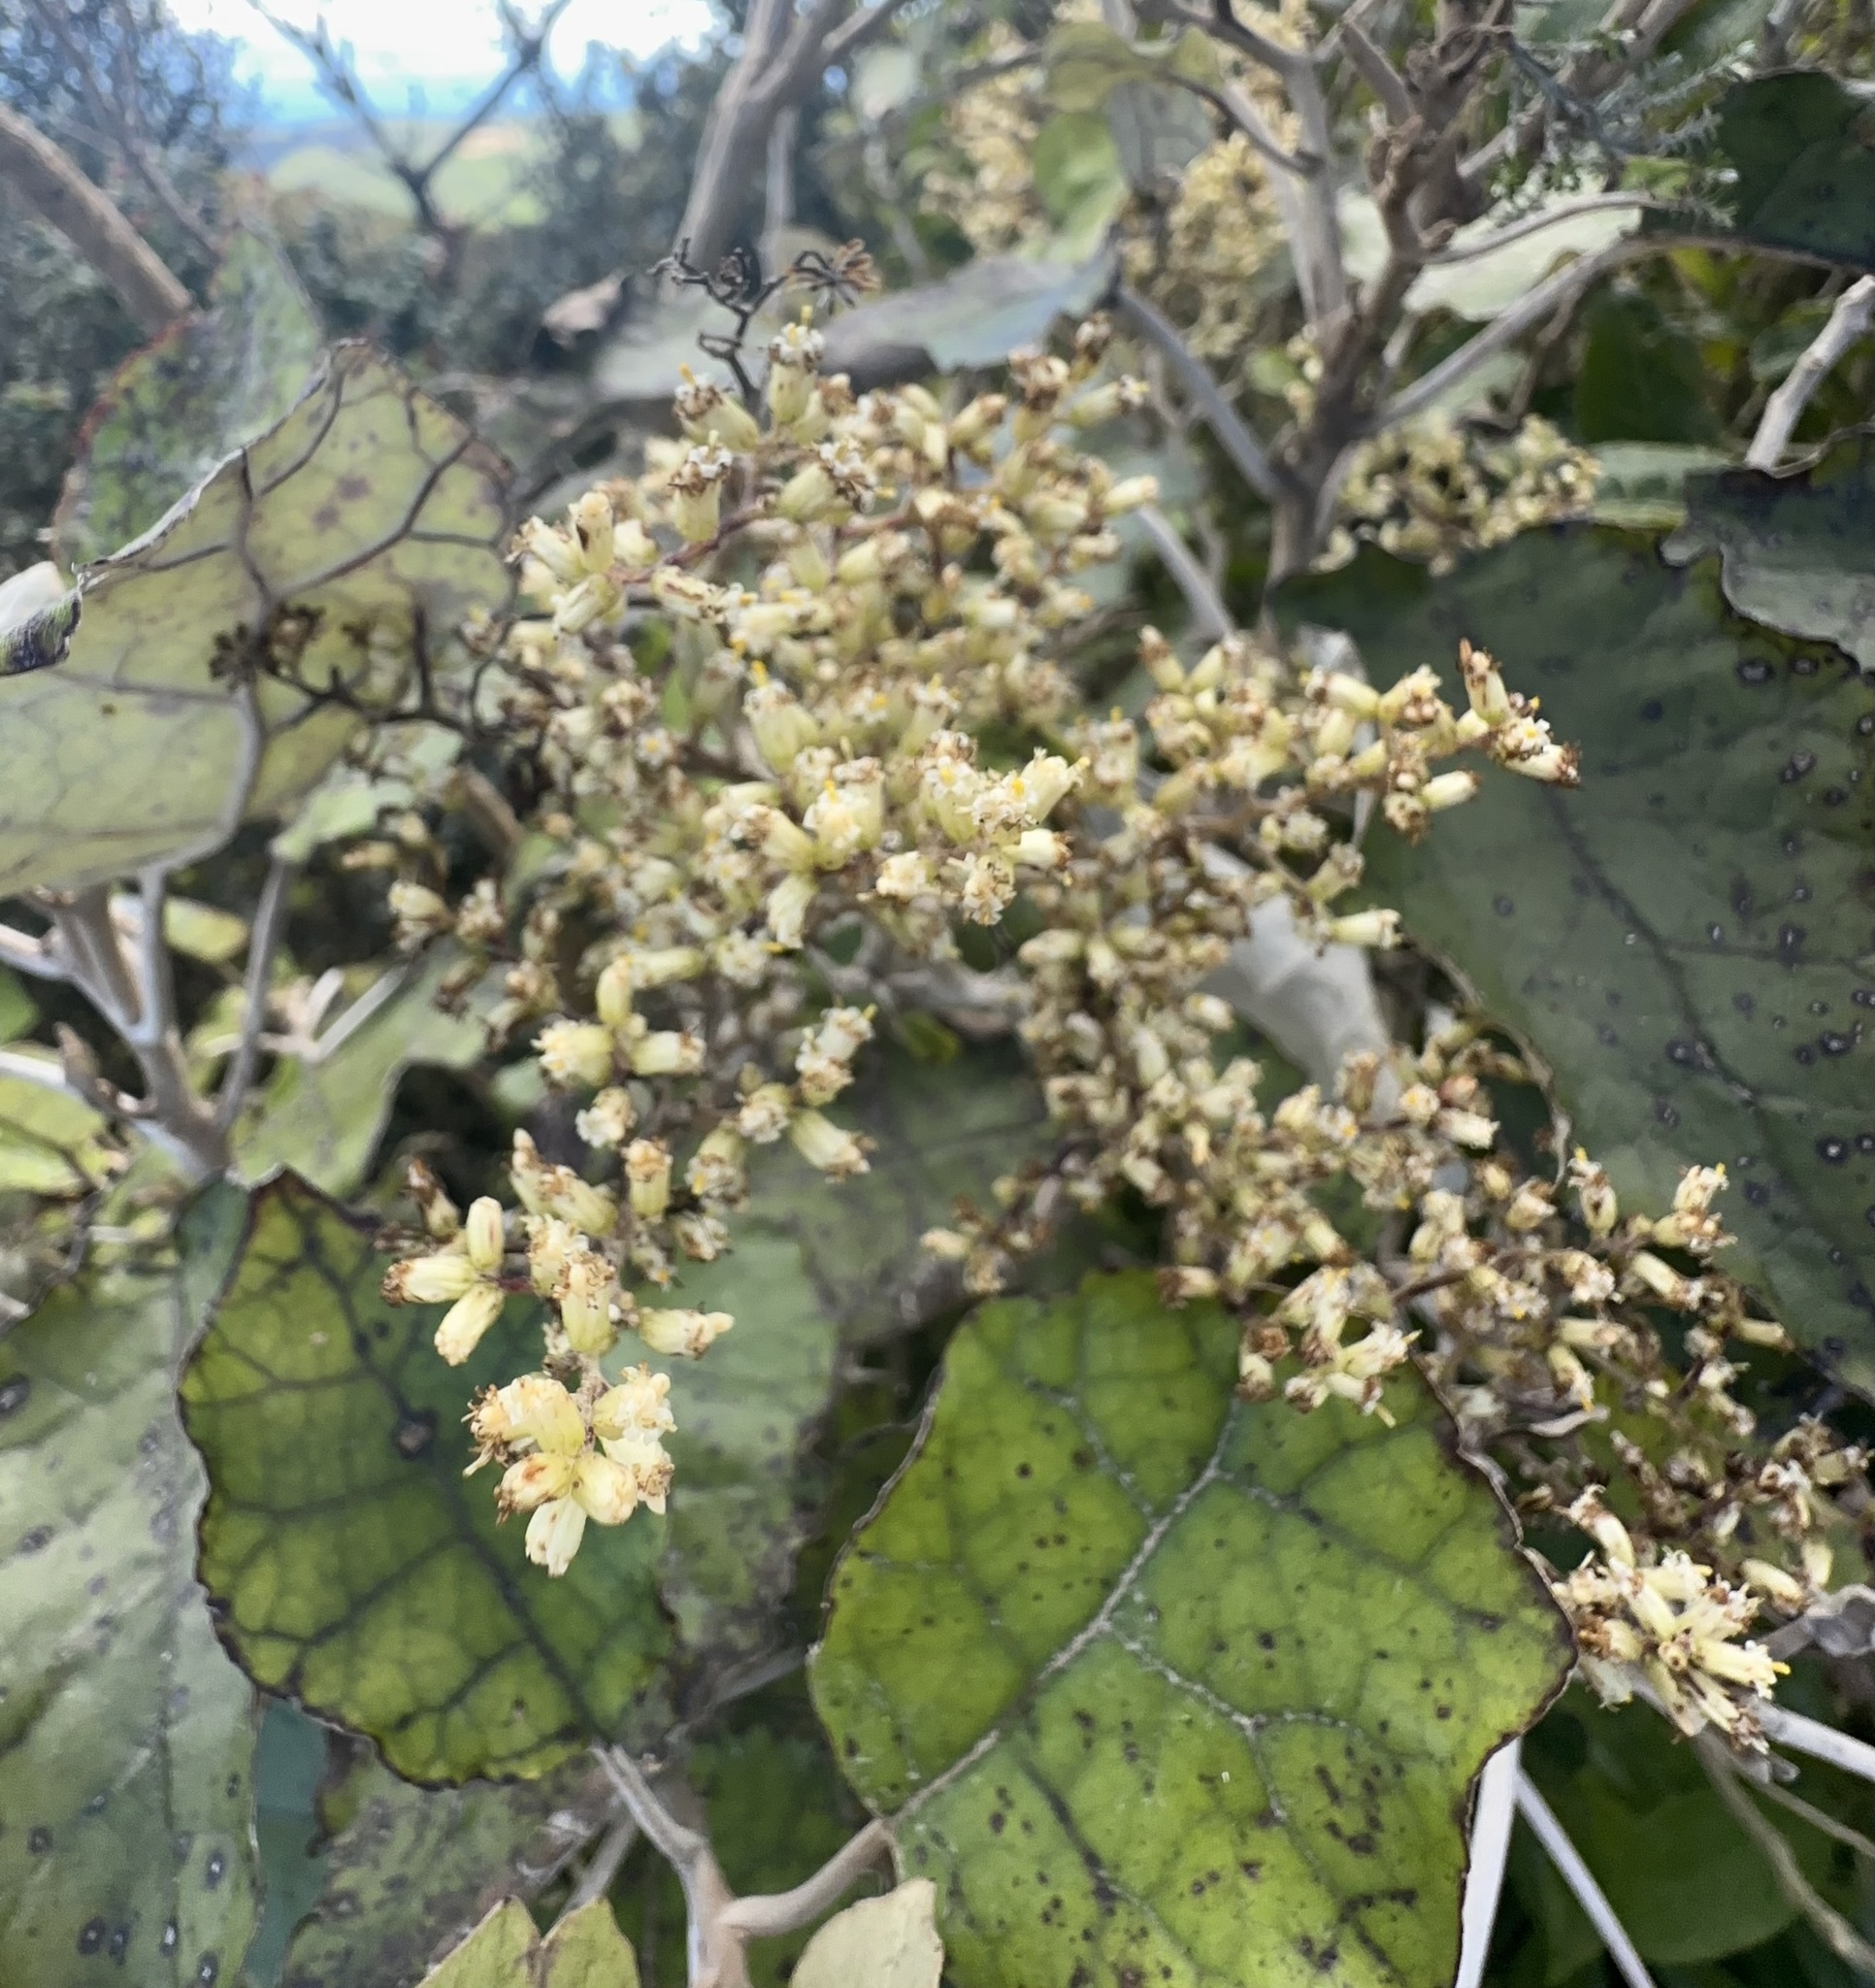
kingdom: Plantae
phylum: Tracheophyta
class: Magnoliopsida
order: Asterales
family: Asteraceae
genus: Brachyglottis
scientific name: Brachyglottis repanda
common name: Hedge ragwort
